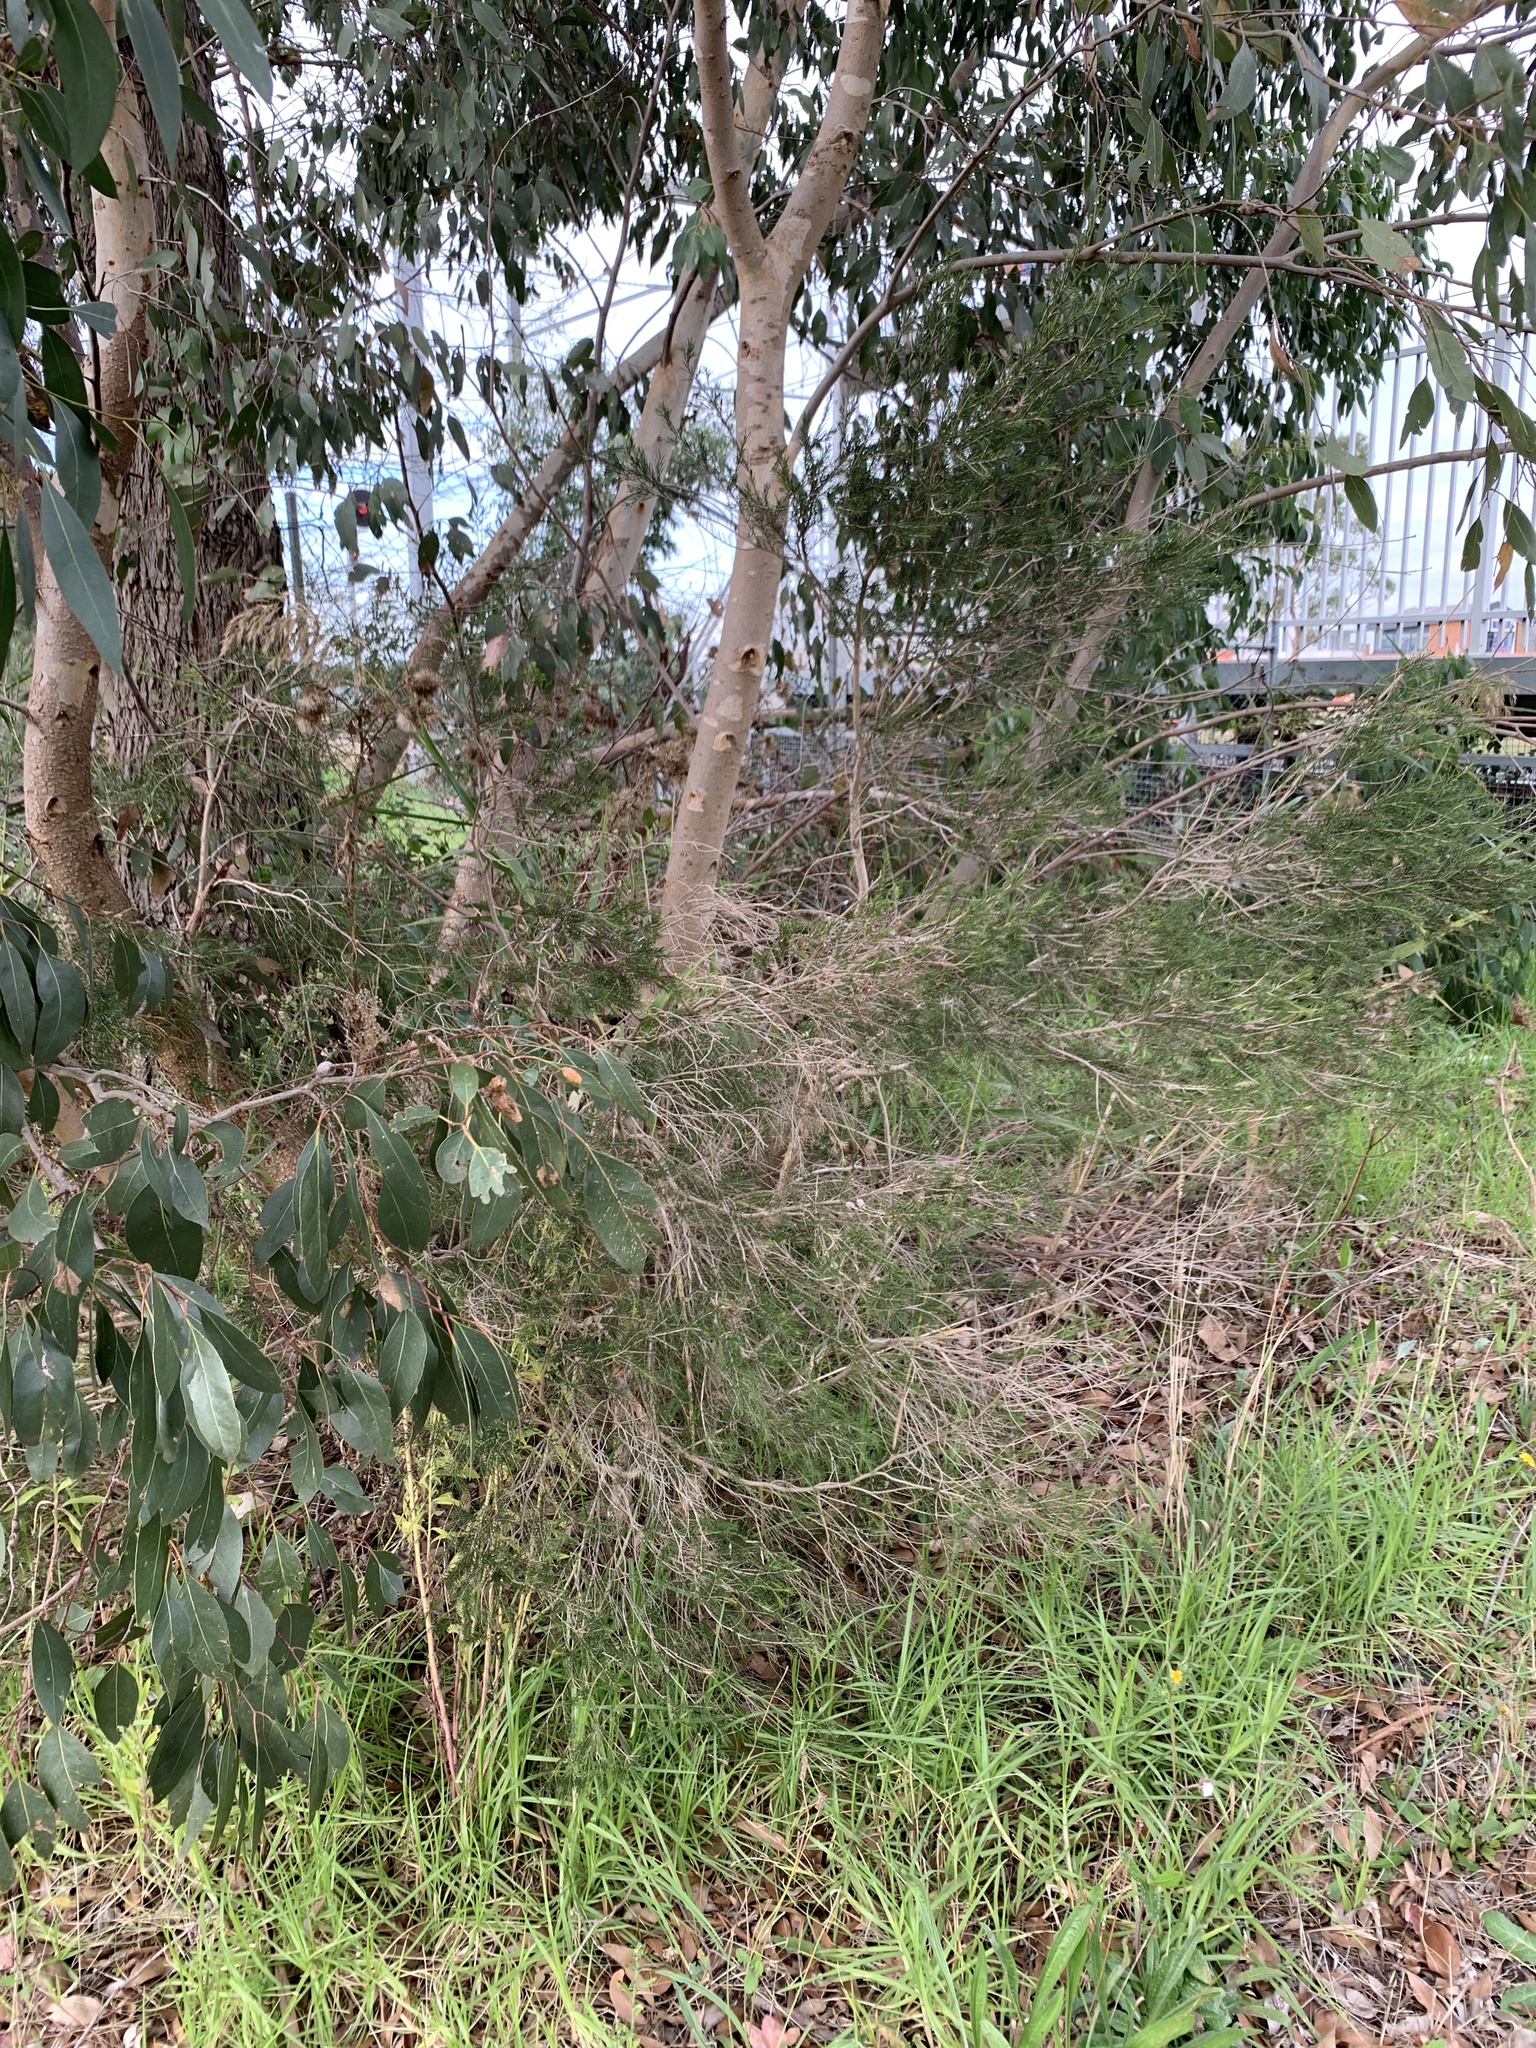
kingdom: Plantae
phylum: Tracheophyta
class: Magnoliopsida
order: Myrtales
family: Myrtaceae
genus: Melaleuca
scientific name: Melaleuca ericifolia
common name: Paperbark teatree
